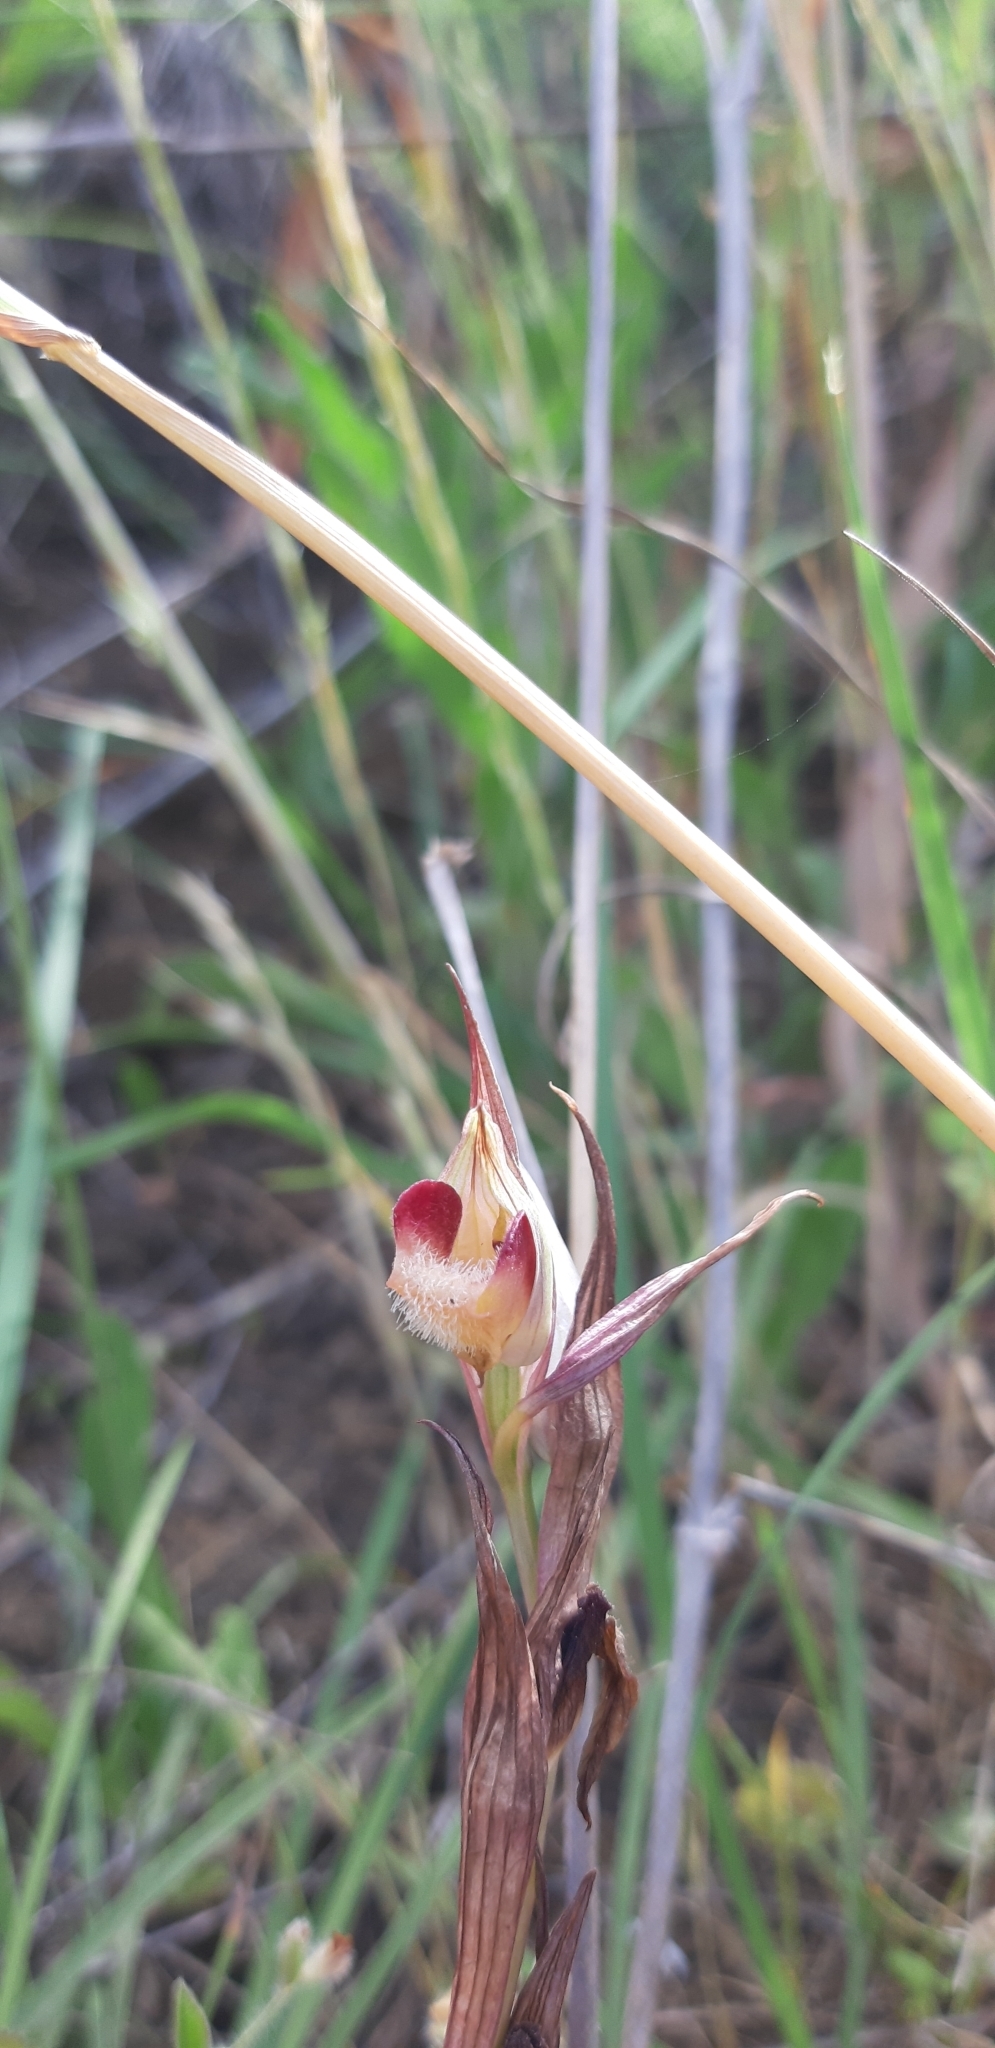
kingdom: Plantae
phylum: Tracheophyta
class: Liliopsida
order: Asparagales
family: Orchidaceae
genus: Serapias
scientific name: Serapias vomeracea
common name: Long-lipped tongue-orchid
